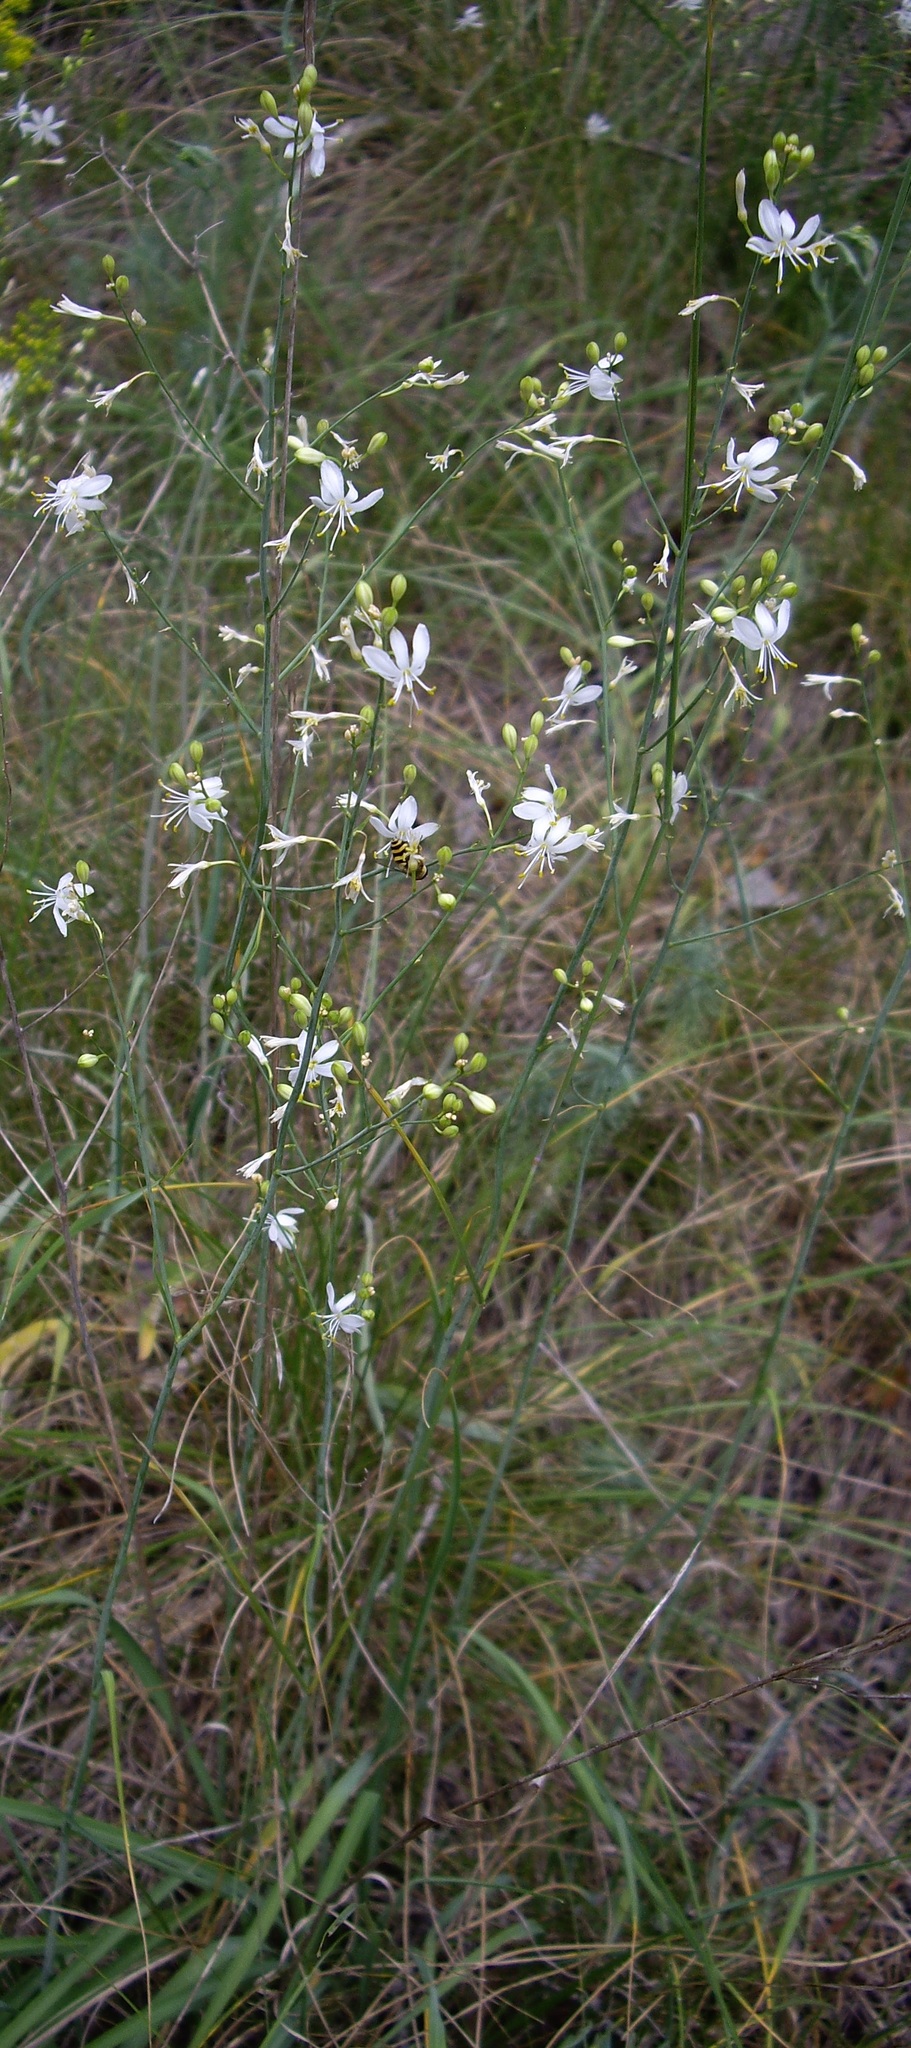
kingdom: Plantae
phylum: Tracheophyta
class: Liliopsida
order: Asparagales
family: Asparagaceae
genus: Anthericum
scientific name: Anthericum ramosum
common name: Branched st. bernard's-lily
